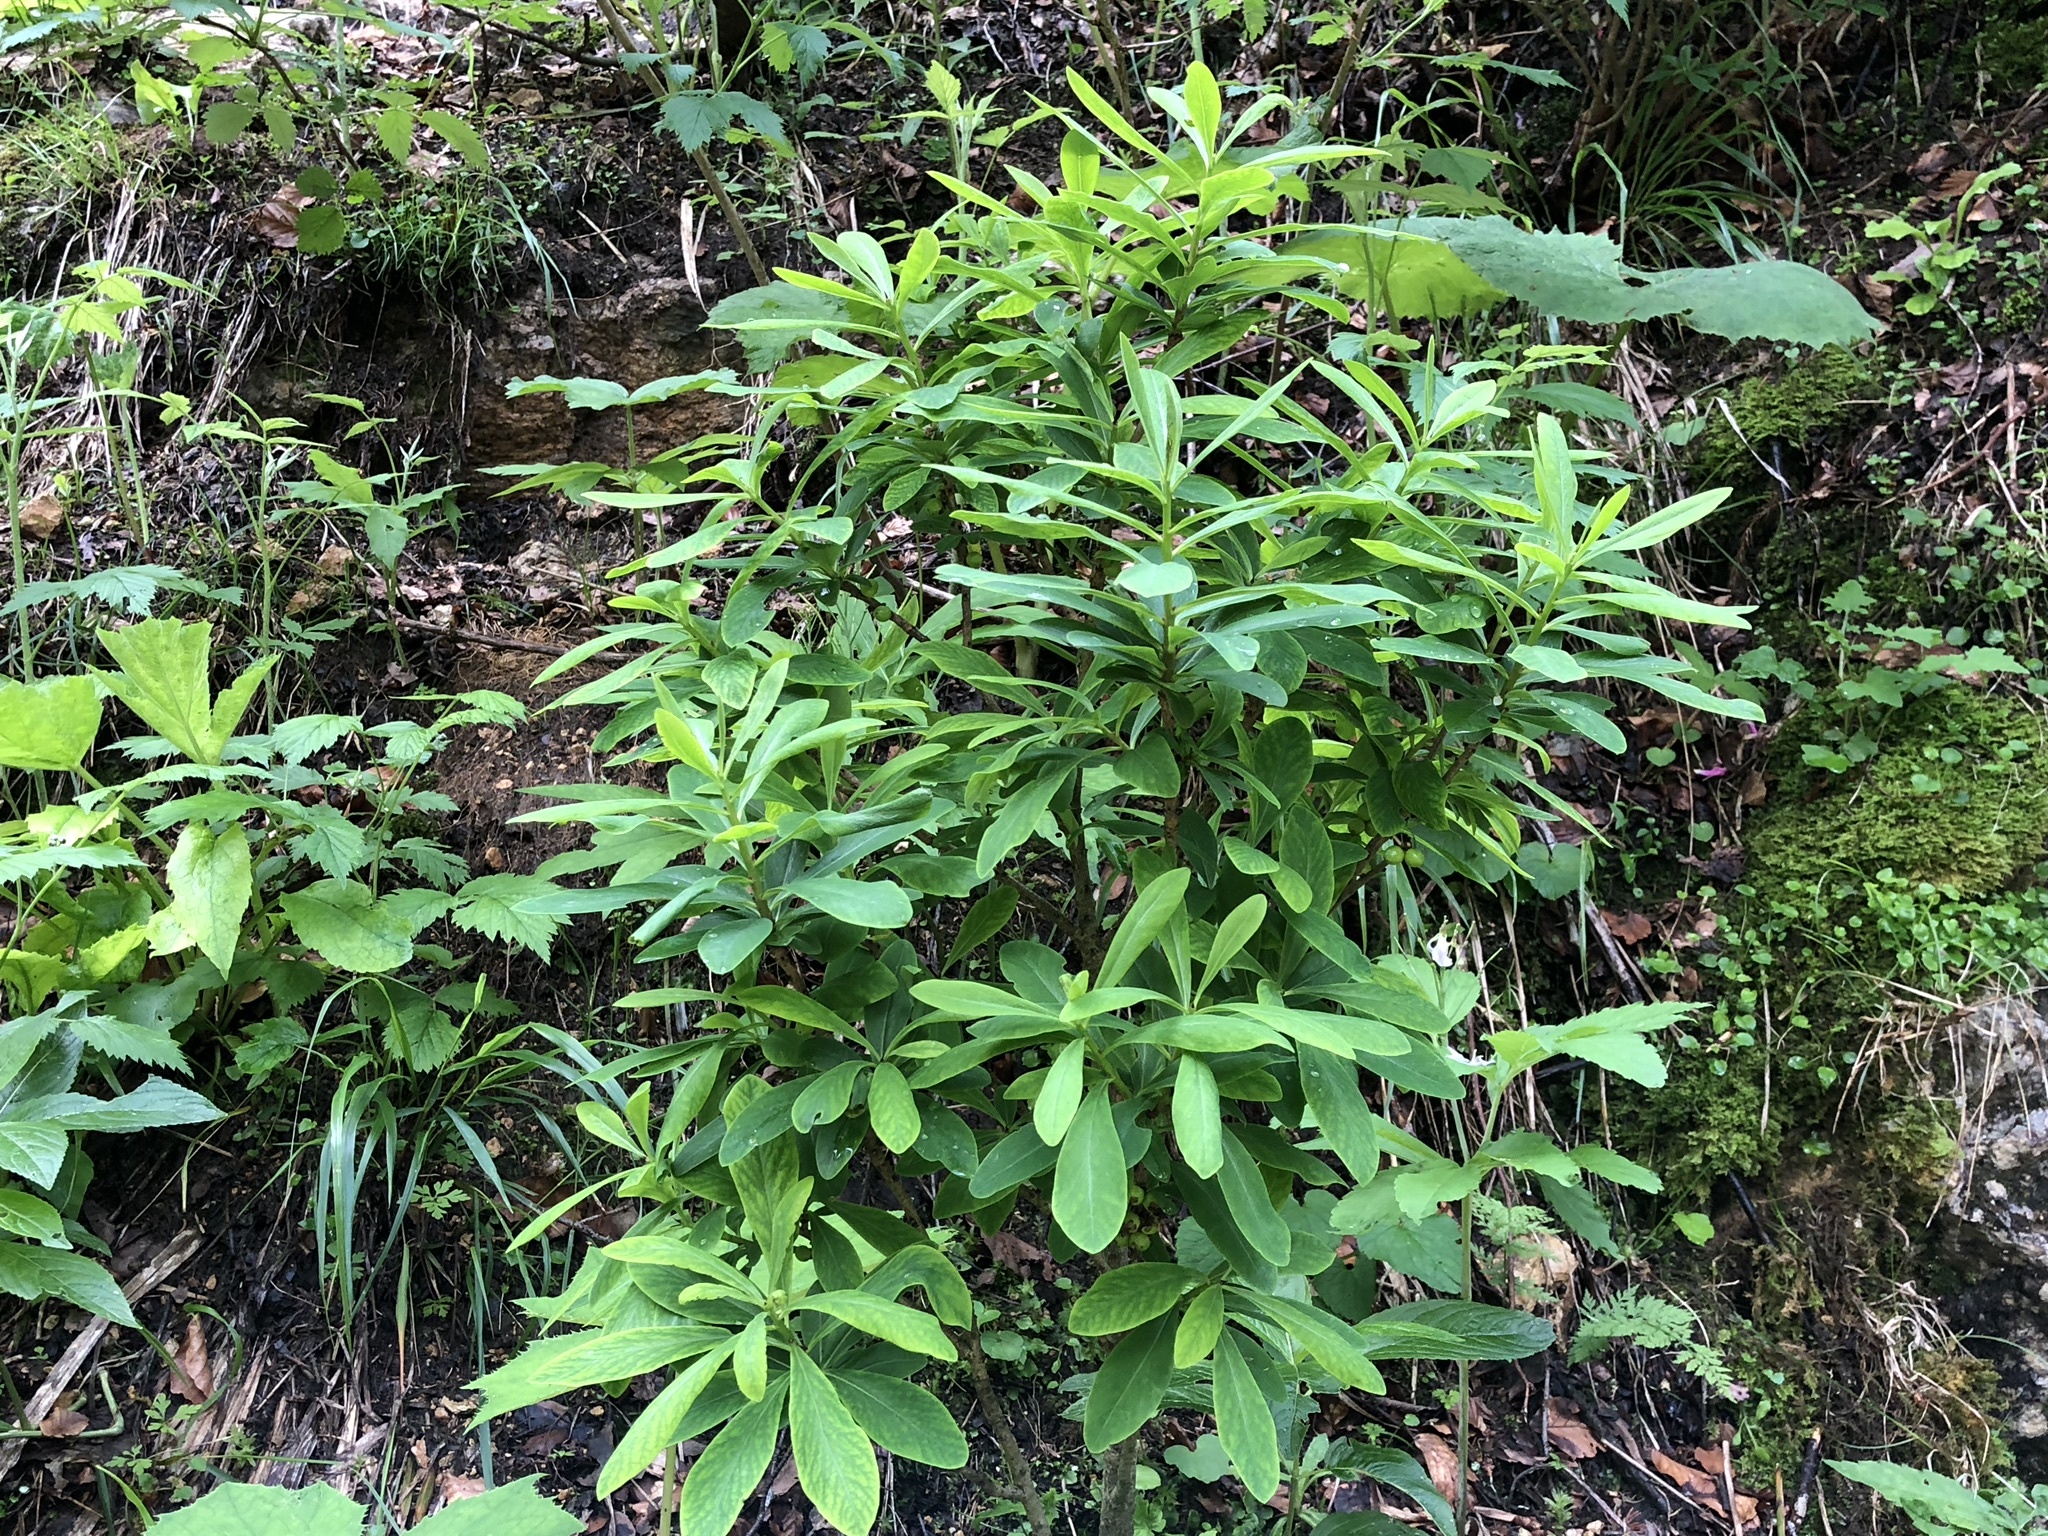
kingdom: Plantae
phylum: Tracheophyta
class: Magnoliopsida
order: Malvales
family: Thymelaeaceae
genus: Daphne
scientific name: Daphne mezereum
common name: Mezereon
